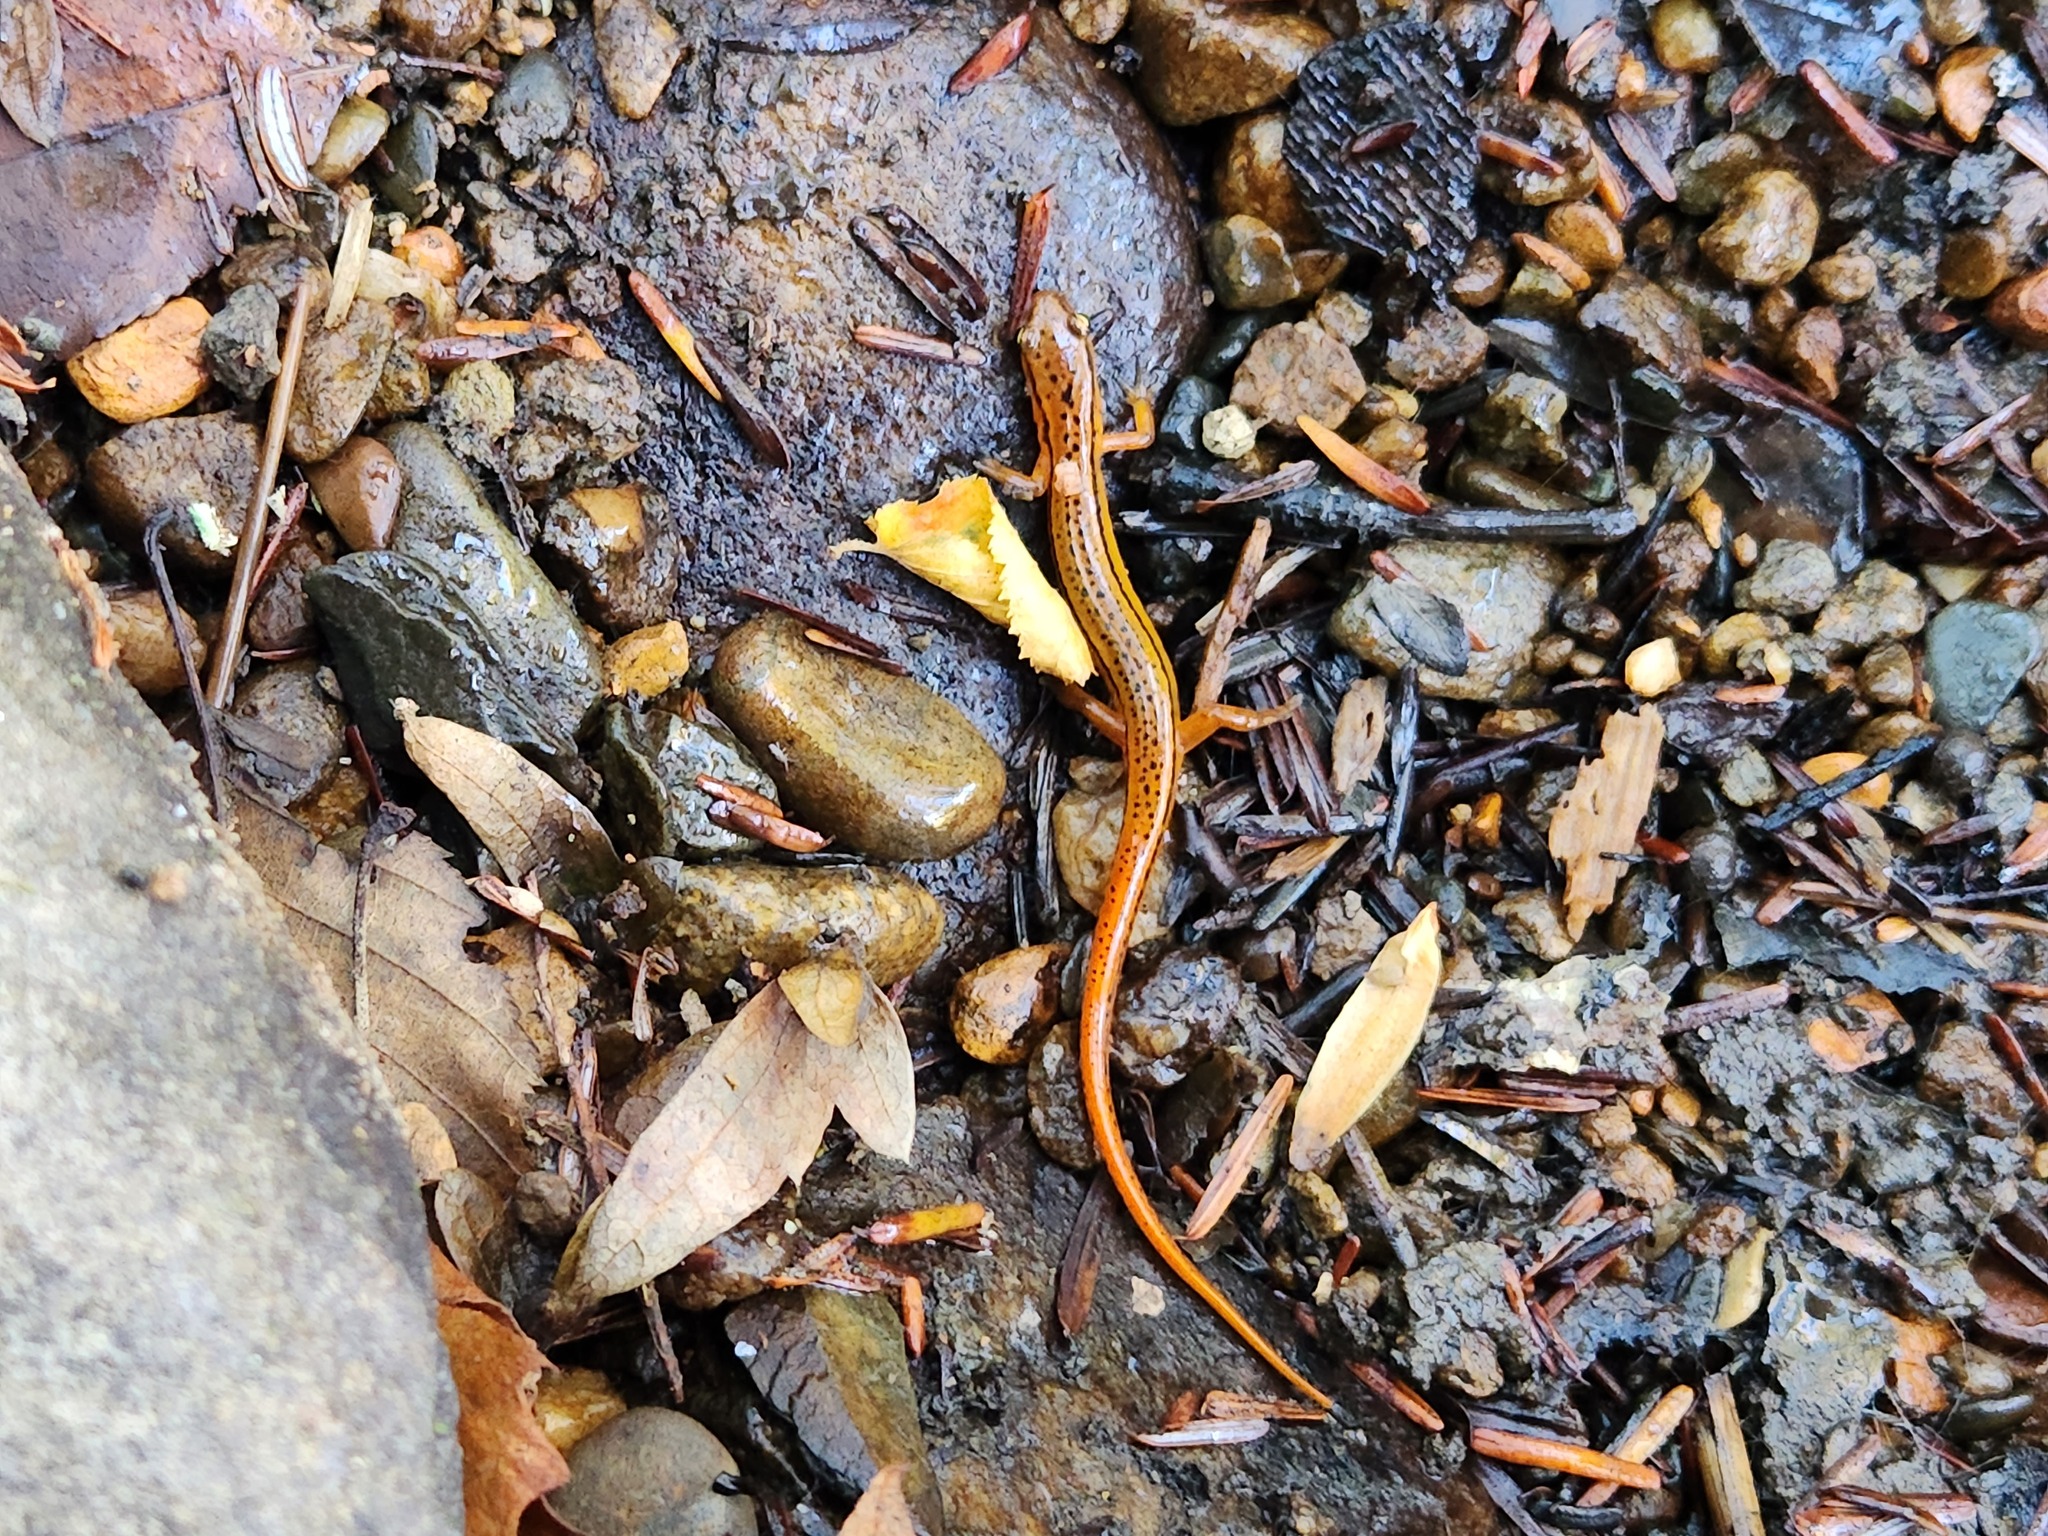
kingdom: Animalia
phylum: Chordata
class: Amphibia
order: Caudata
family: Plethodontidae
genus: Eurycea
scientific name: Eurycea wilderae
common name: Blue ridge two-lined salamander
